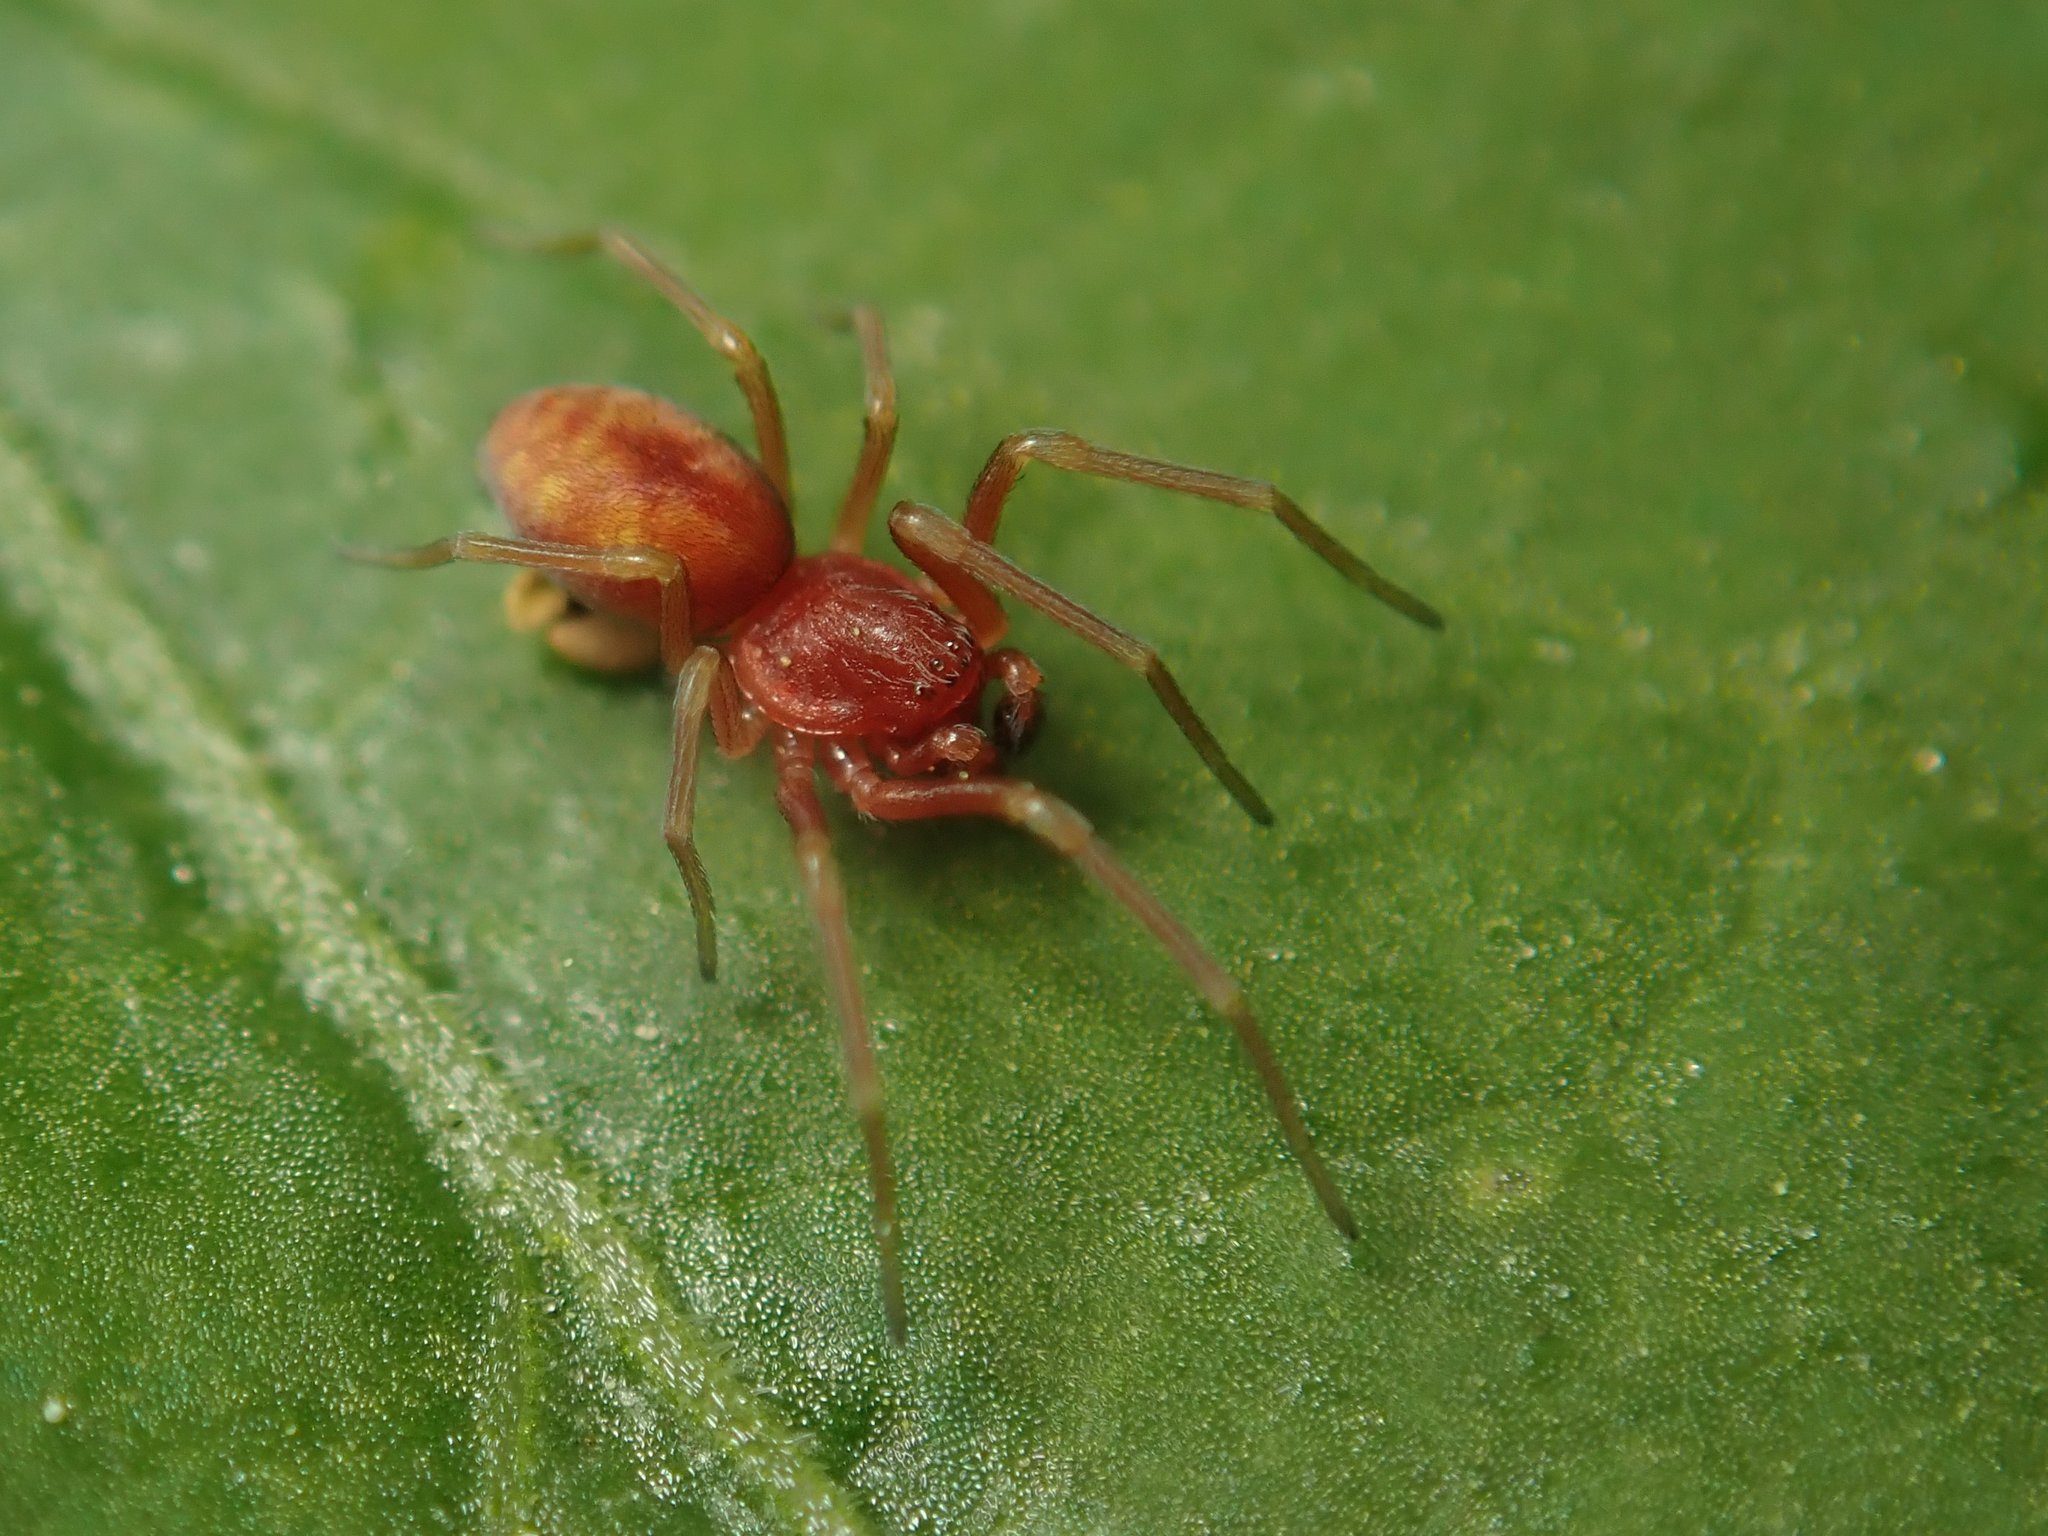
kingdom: Animalia
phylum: Arthropoda
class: Arachnida
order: Araneae
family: Dictynidae
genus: Nigma
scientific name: Nigma flavescens
